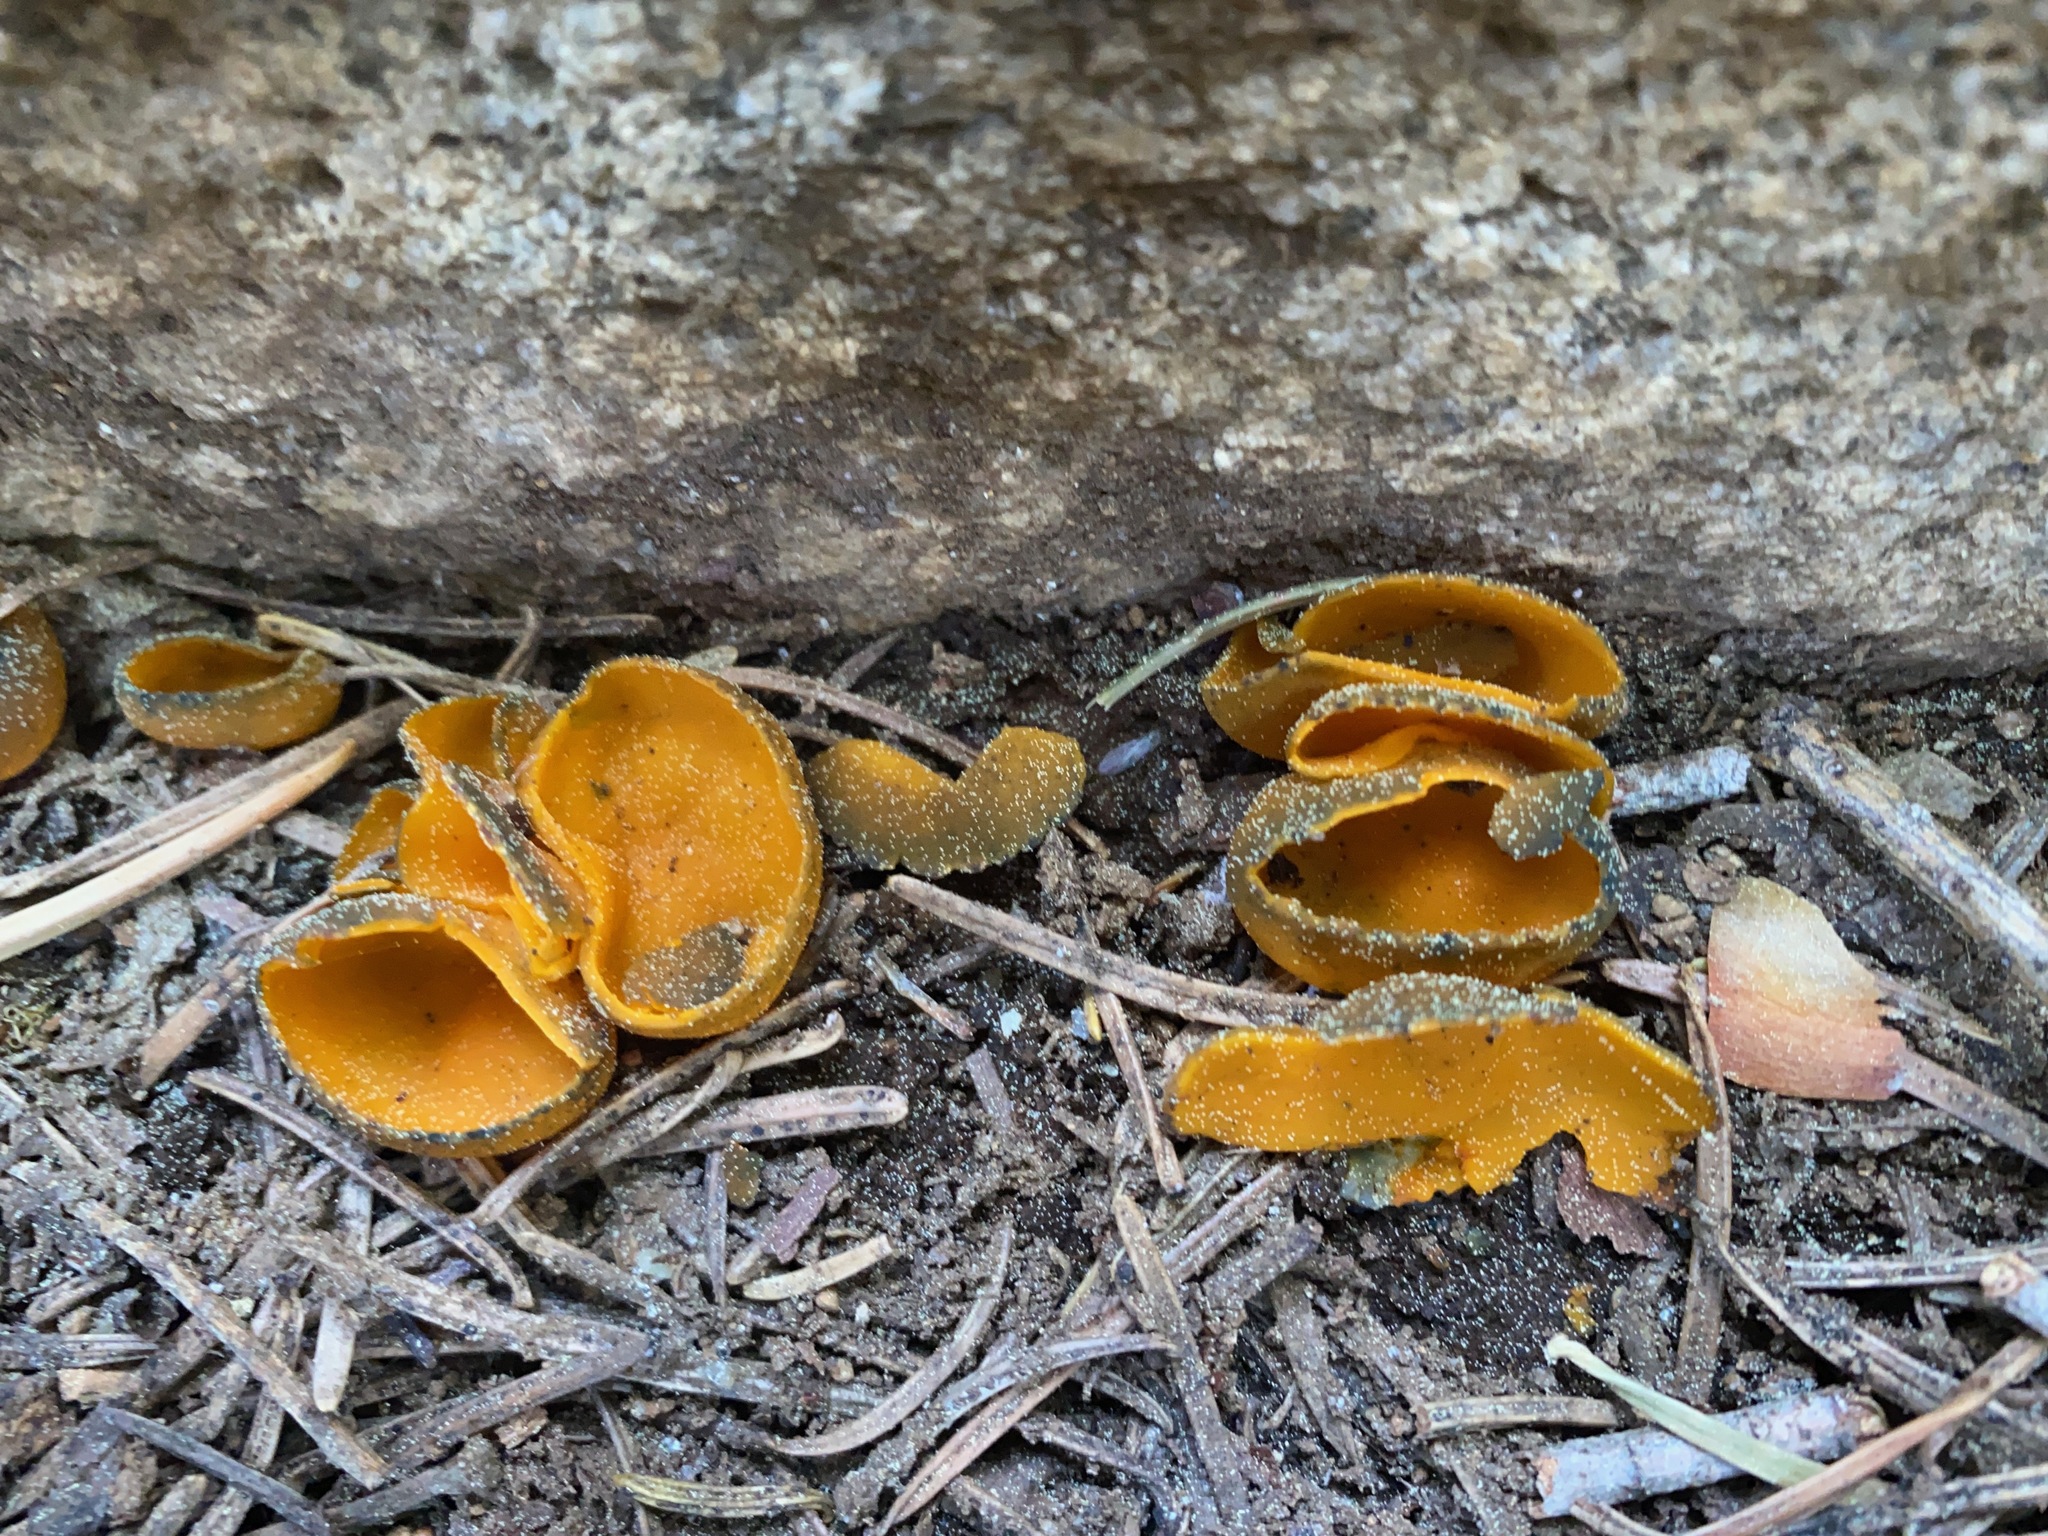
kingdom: Fungi
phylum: Ascomycota
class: Pezizomycetes
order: Pezizales
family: Caloscyphaceae
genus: Caloscypha
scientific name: Caloscypha fulgens
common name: Golden cup
